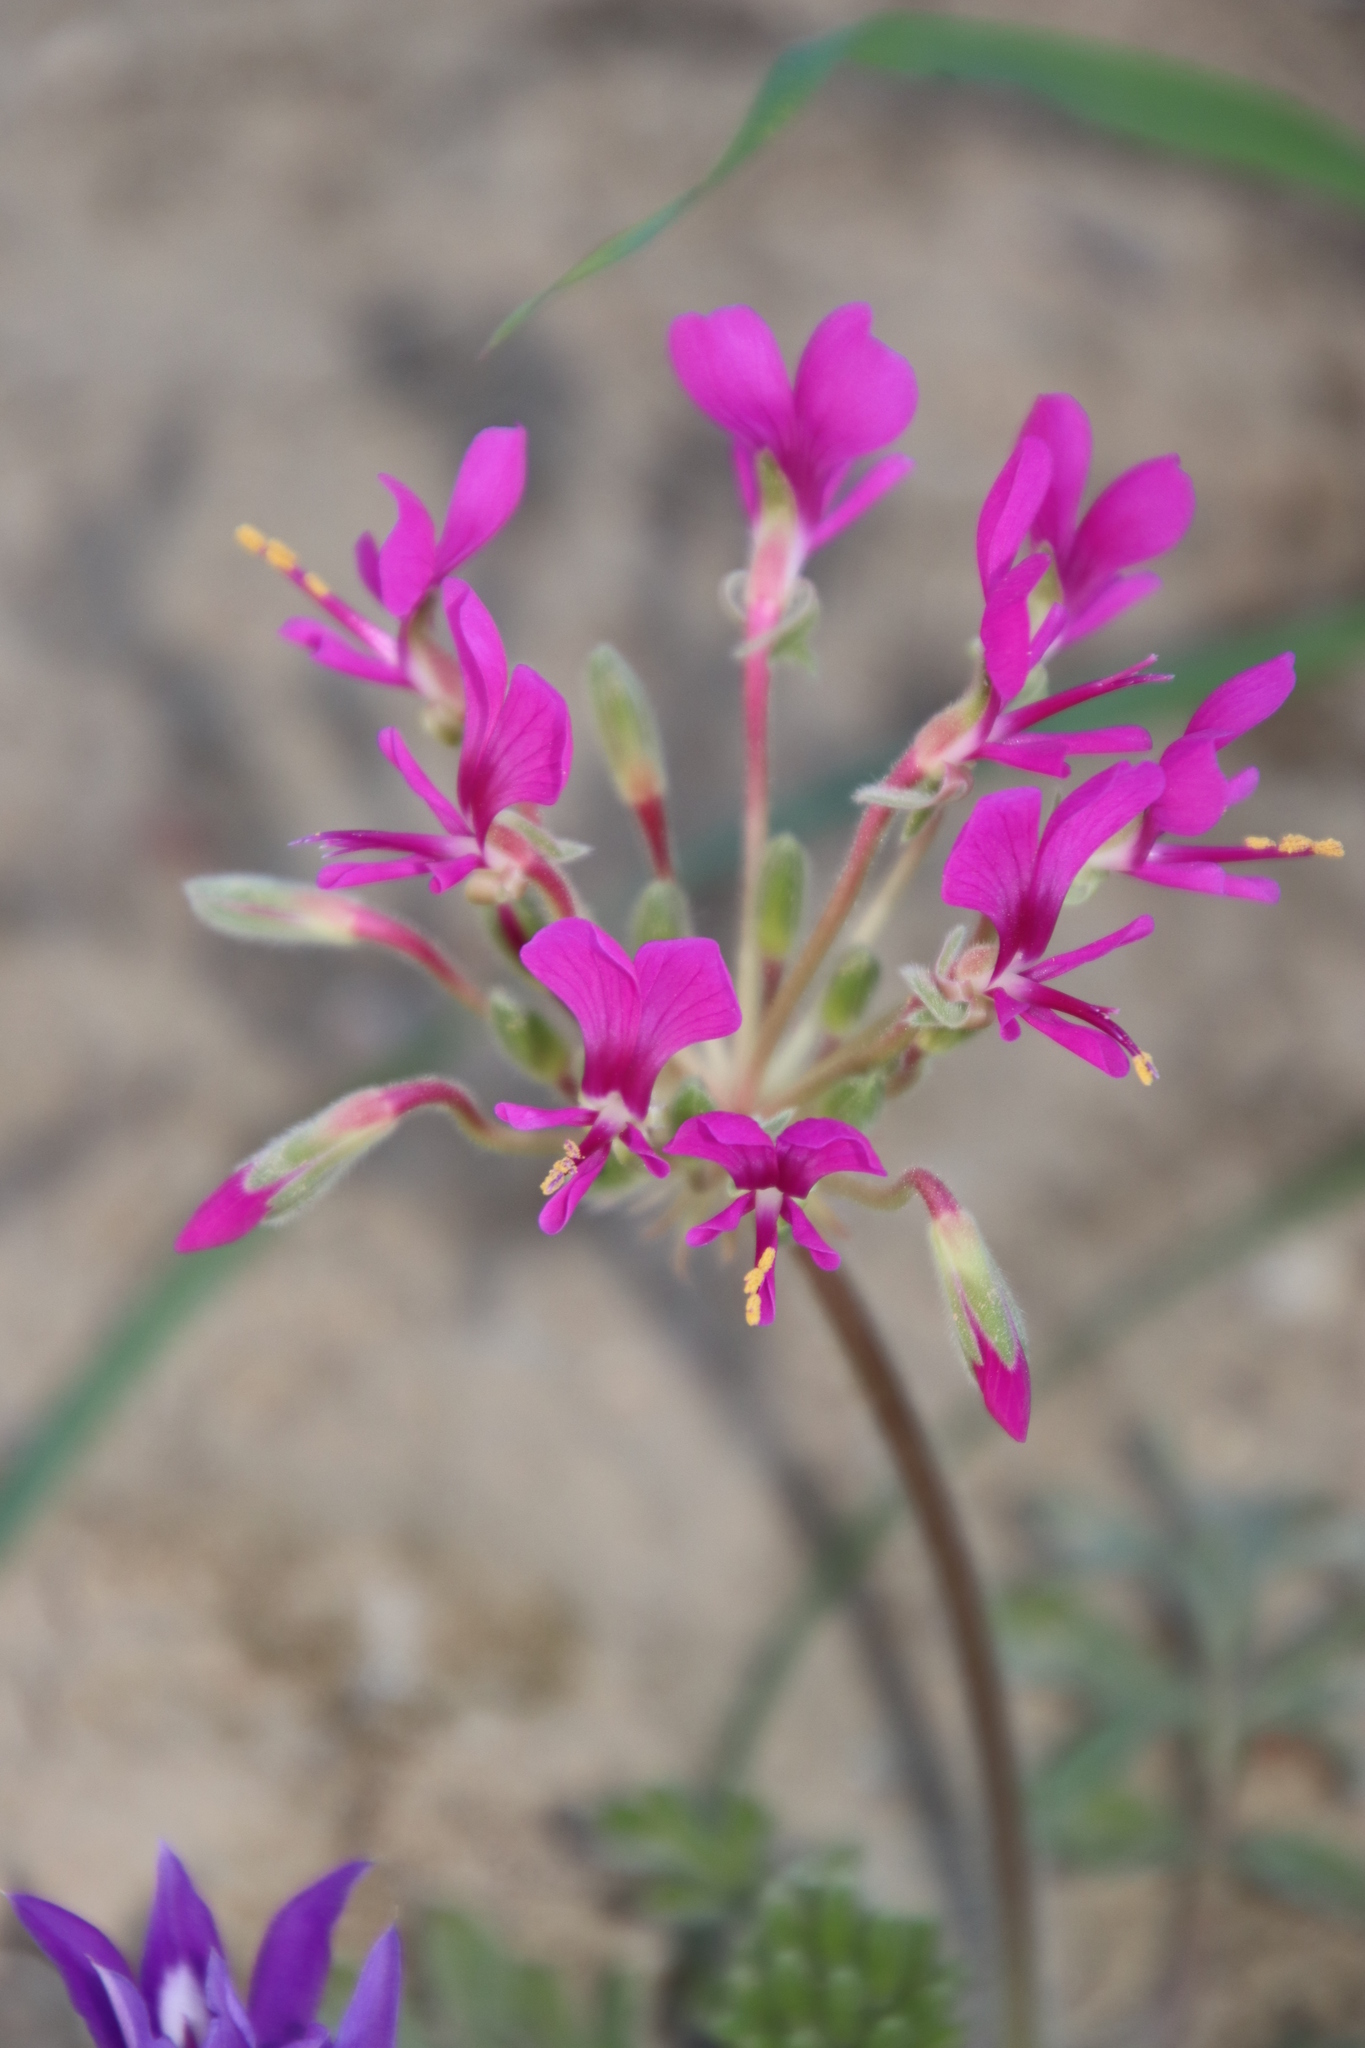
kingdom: Plantae
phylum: Tracheophyta
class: Magnoliopsida
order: Geraniales
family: Geraniaceae
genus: Pelargonium
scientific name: Pelargonium incrassatum
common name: Namaqualand beauty
